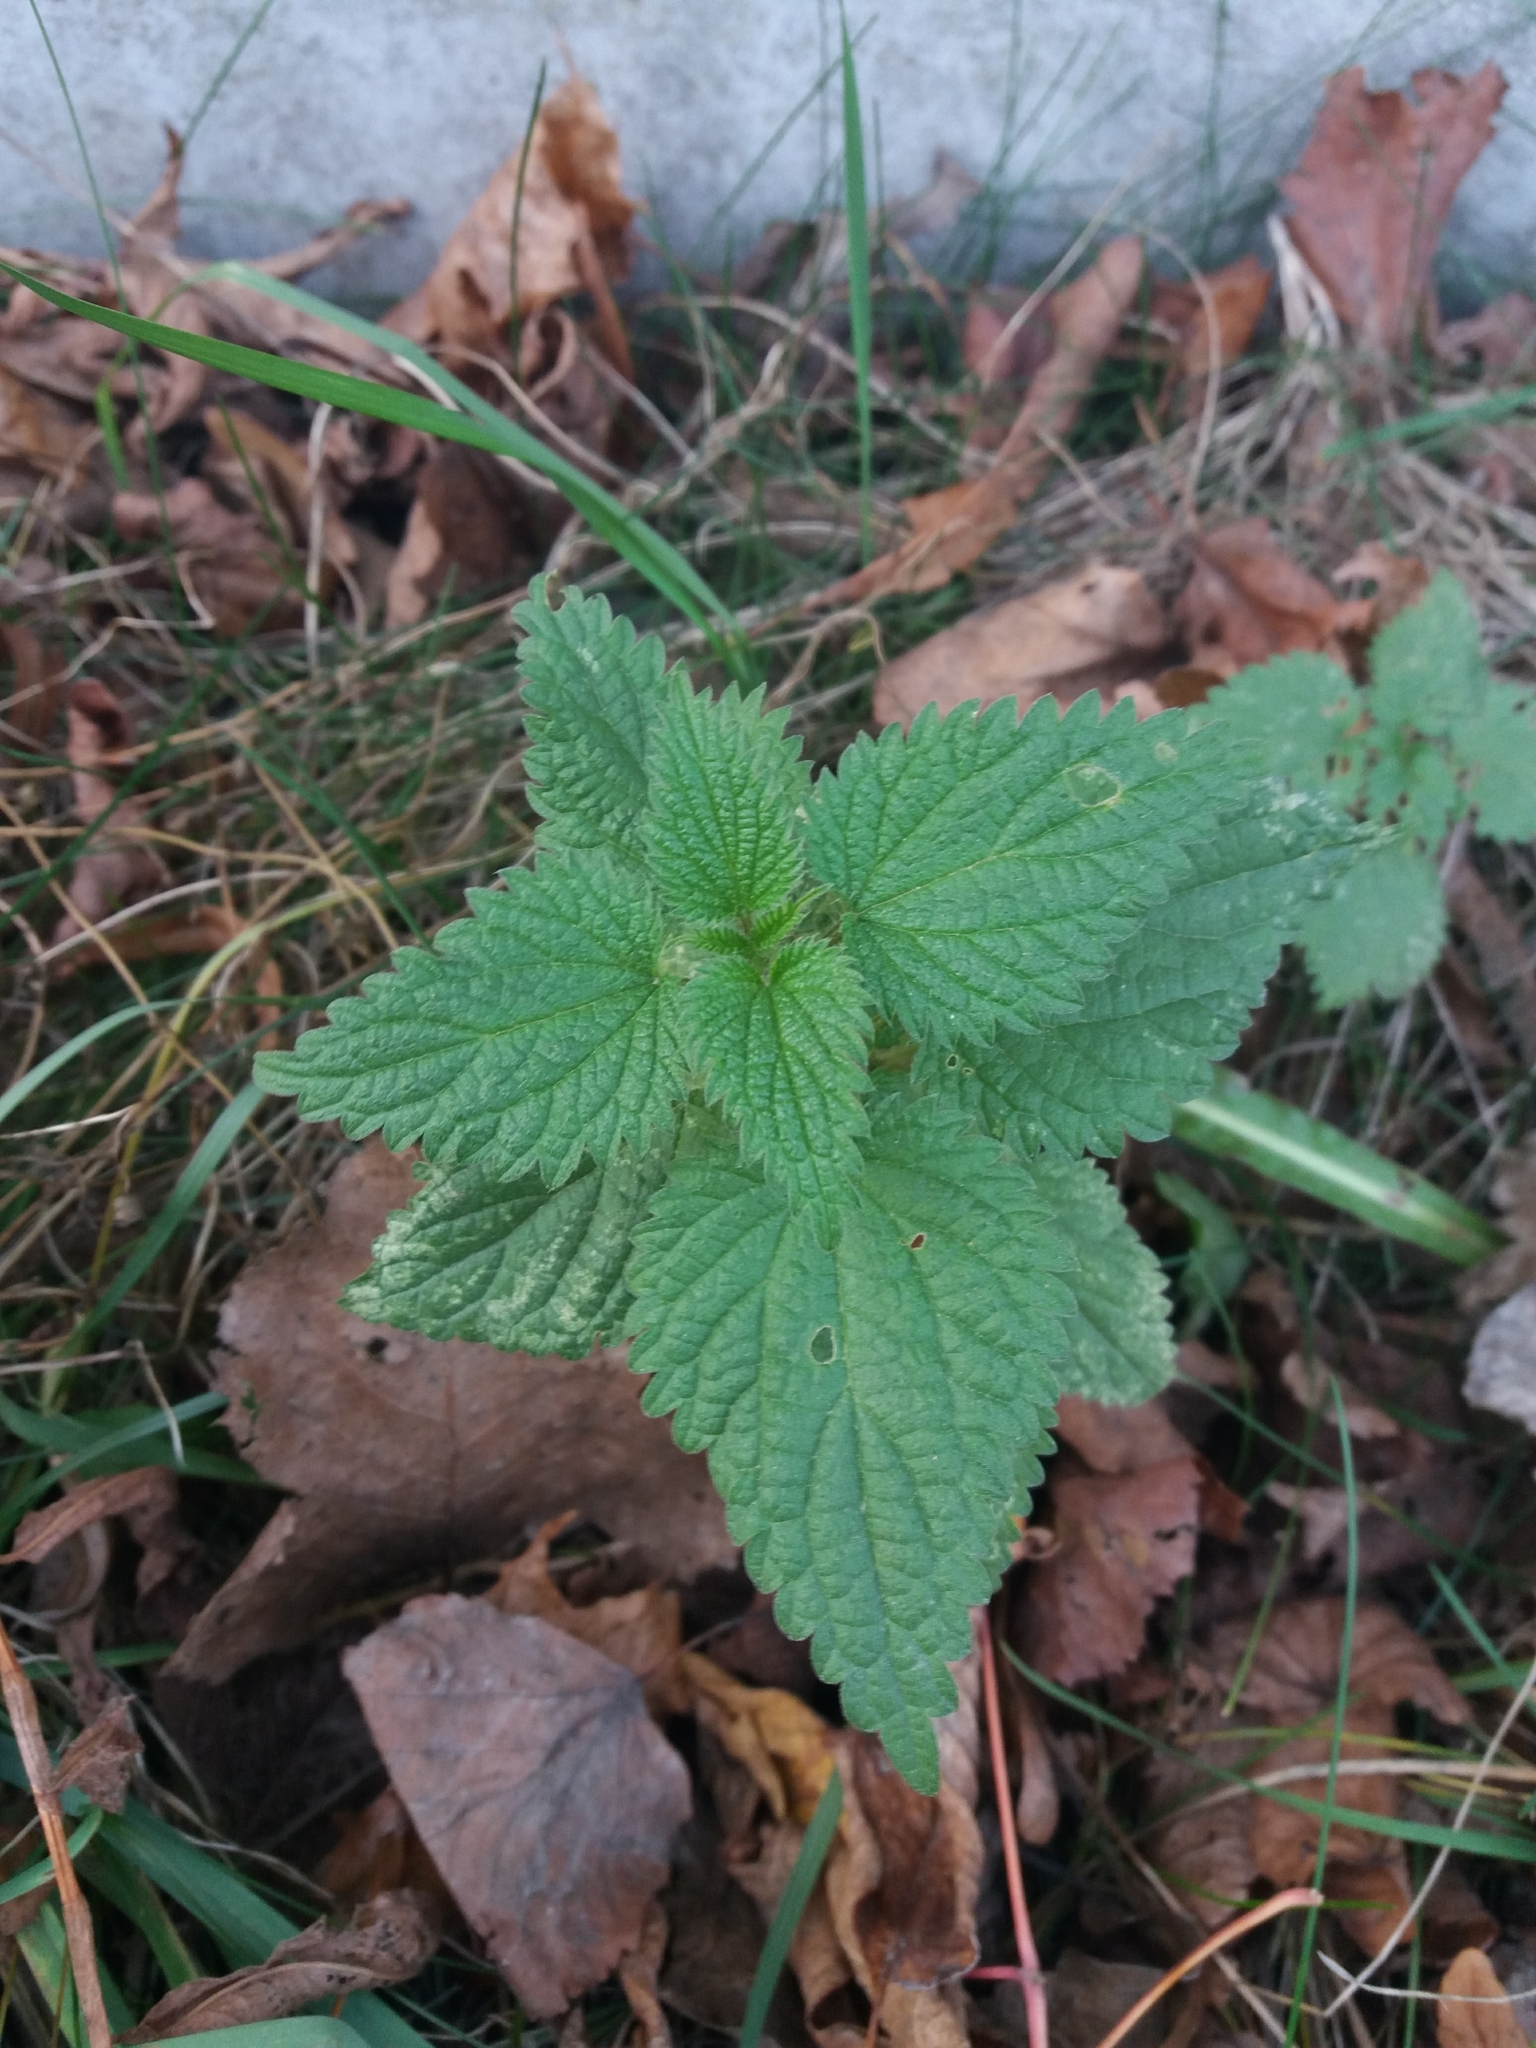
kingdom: Plantae
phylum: Tracheophyta
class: Magnoliopsida
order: Rosales
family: Urticaceae
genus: Urtica
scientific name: Urtica dioica
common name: Common nettle
